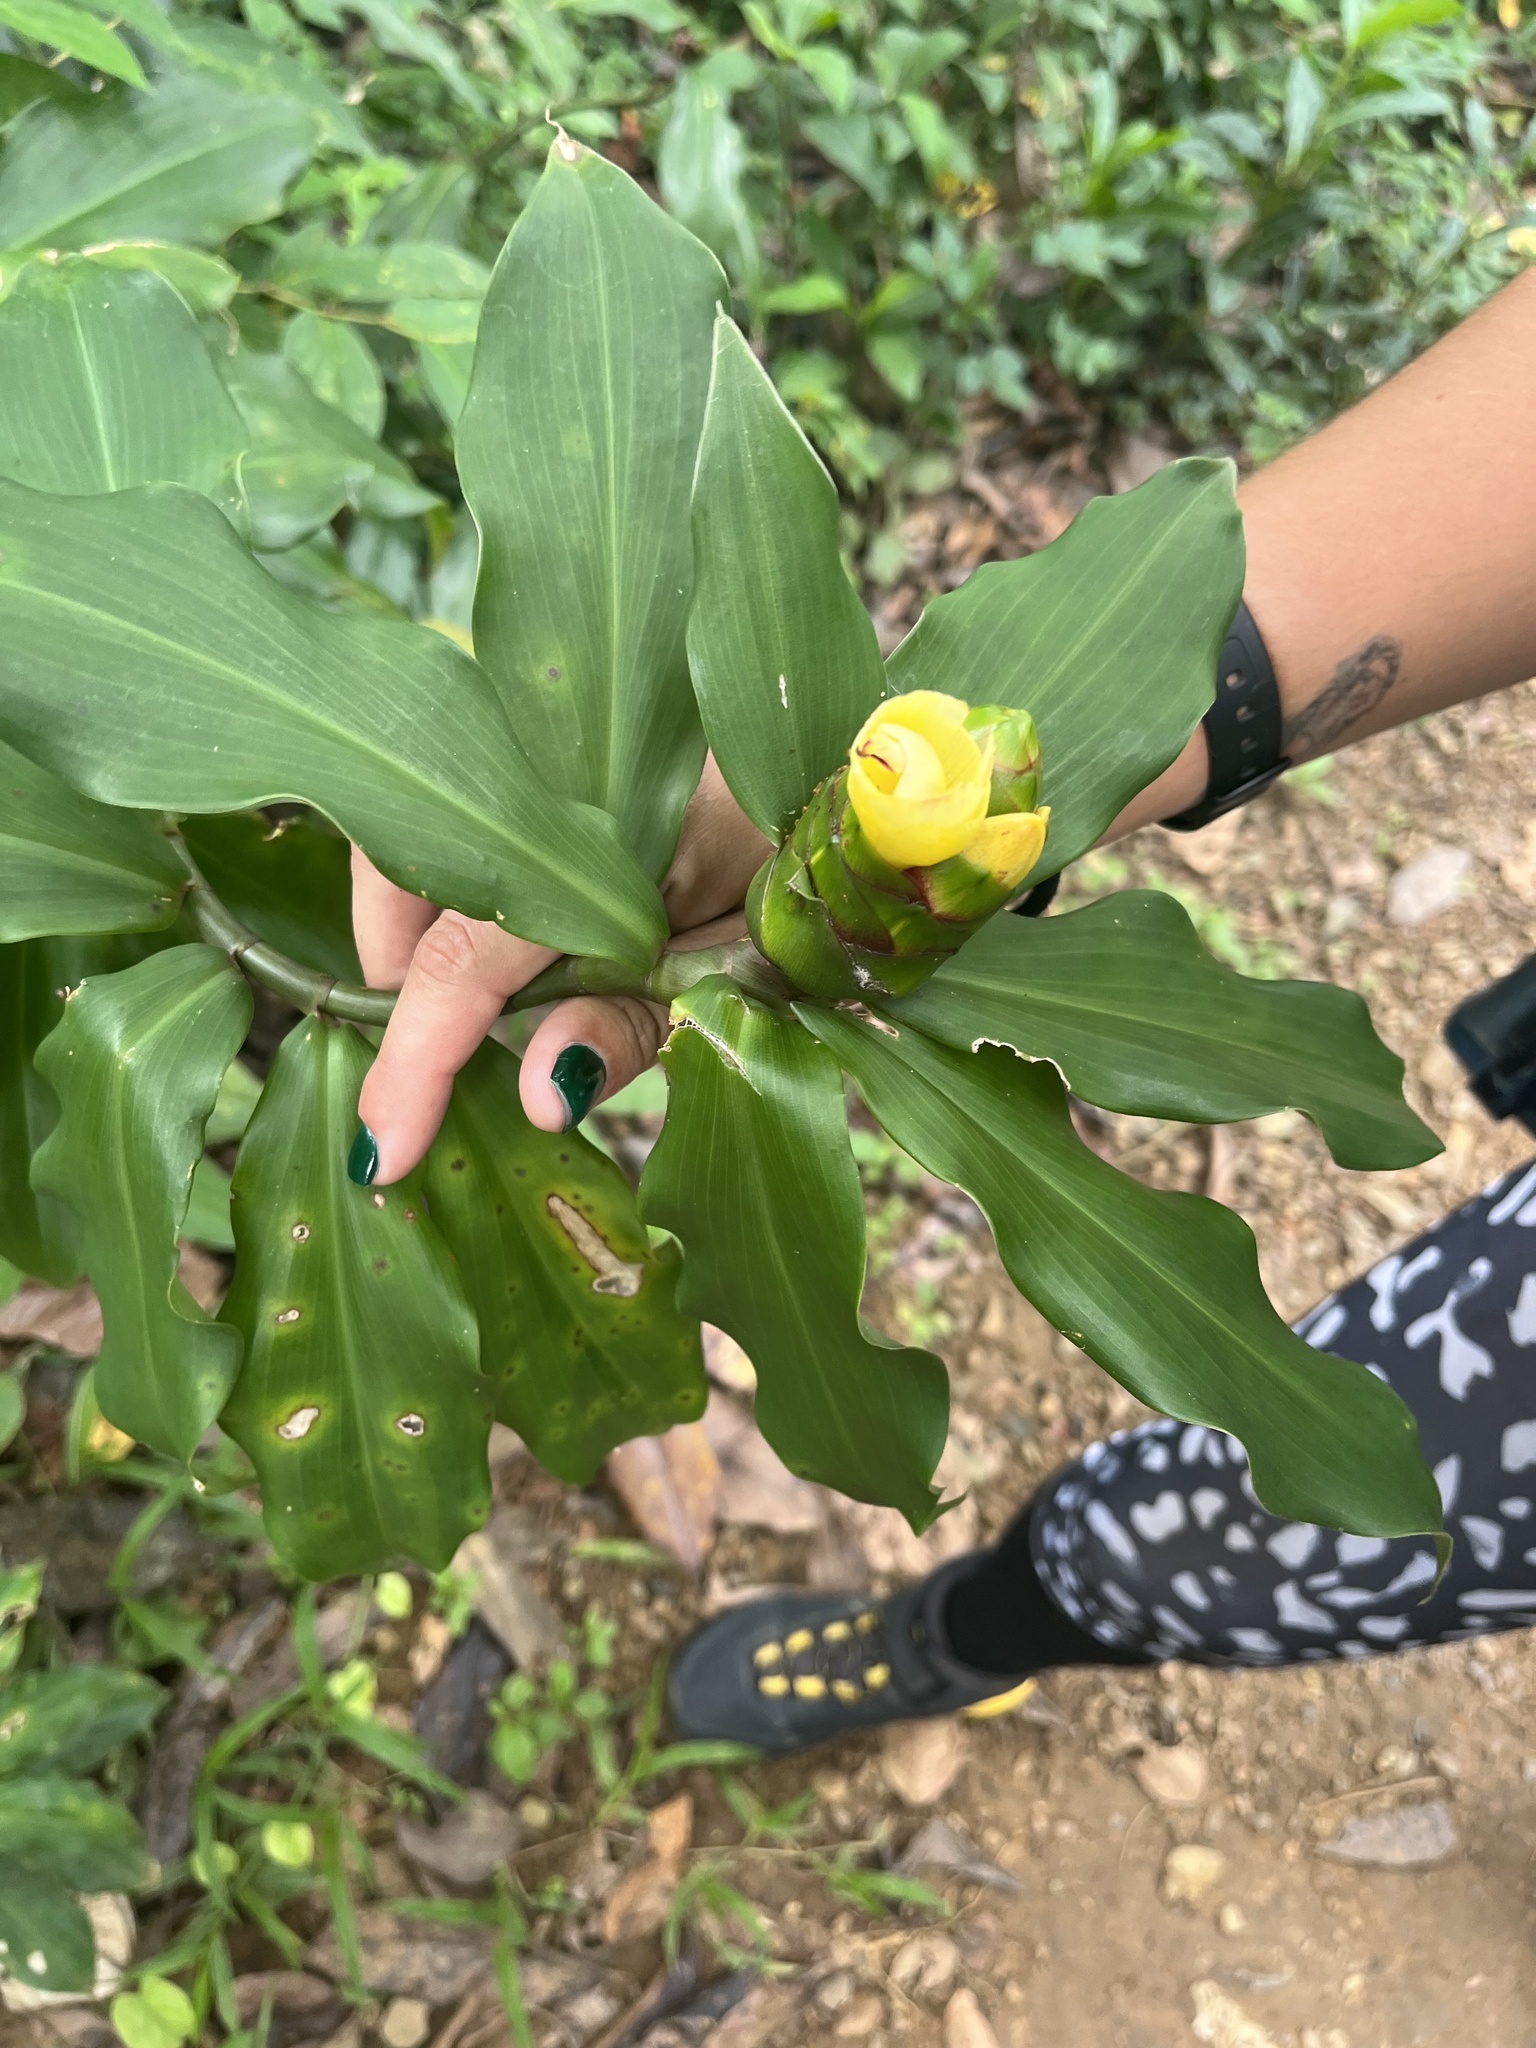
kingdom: Plantae
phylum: Tracheophyta
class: Liliopsida
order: Zingiberales
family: Costaceae
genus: Costus
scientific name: Costus pictus
